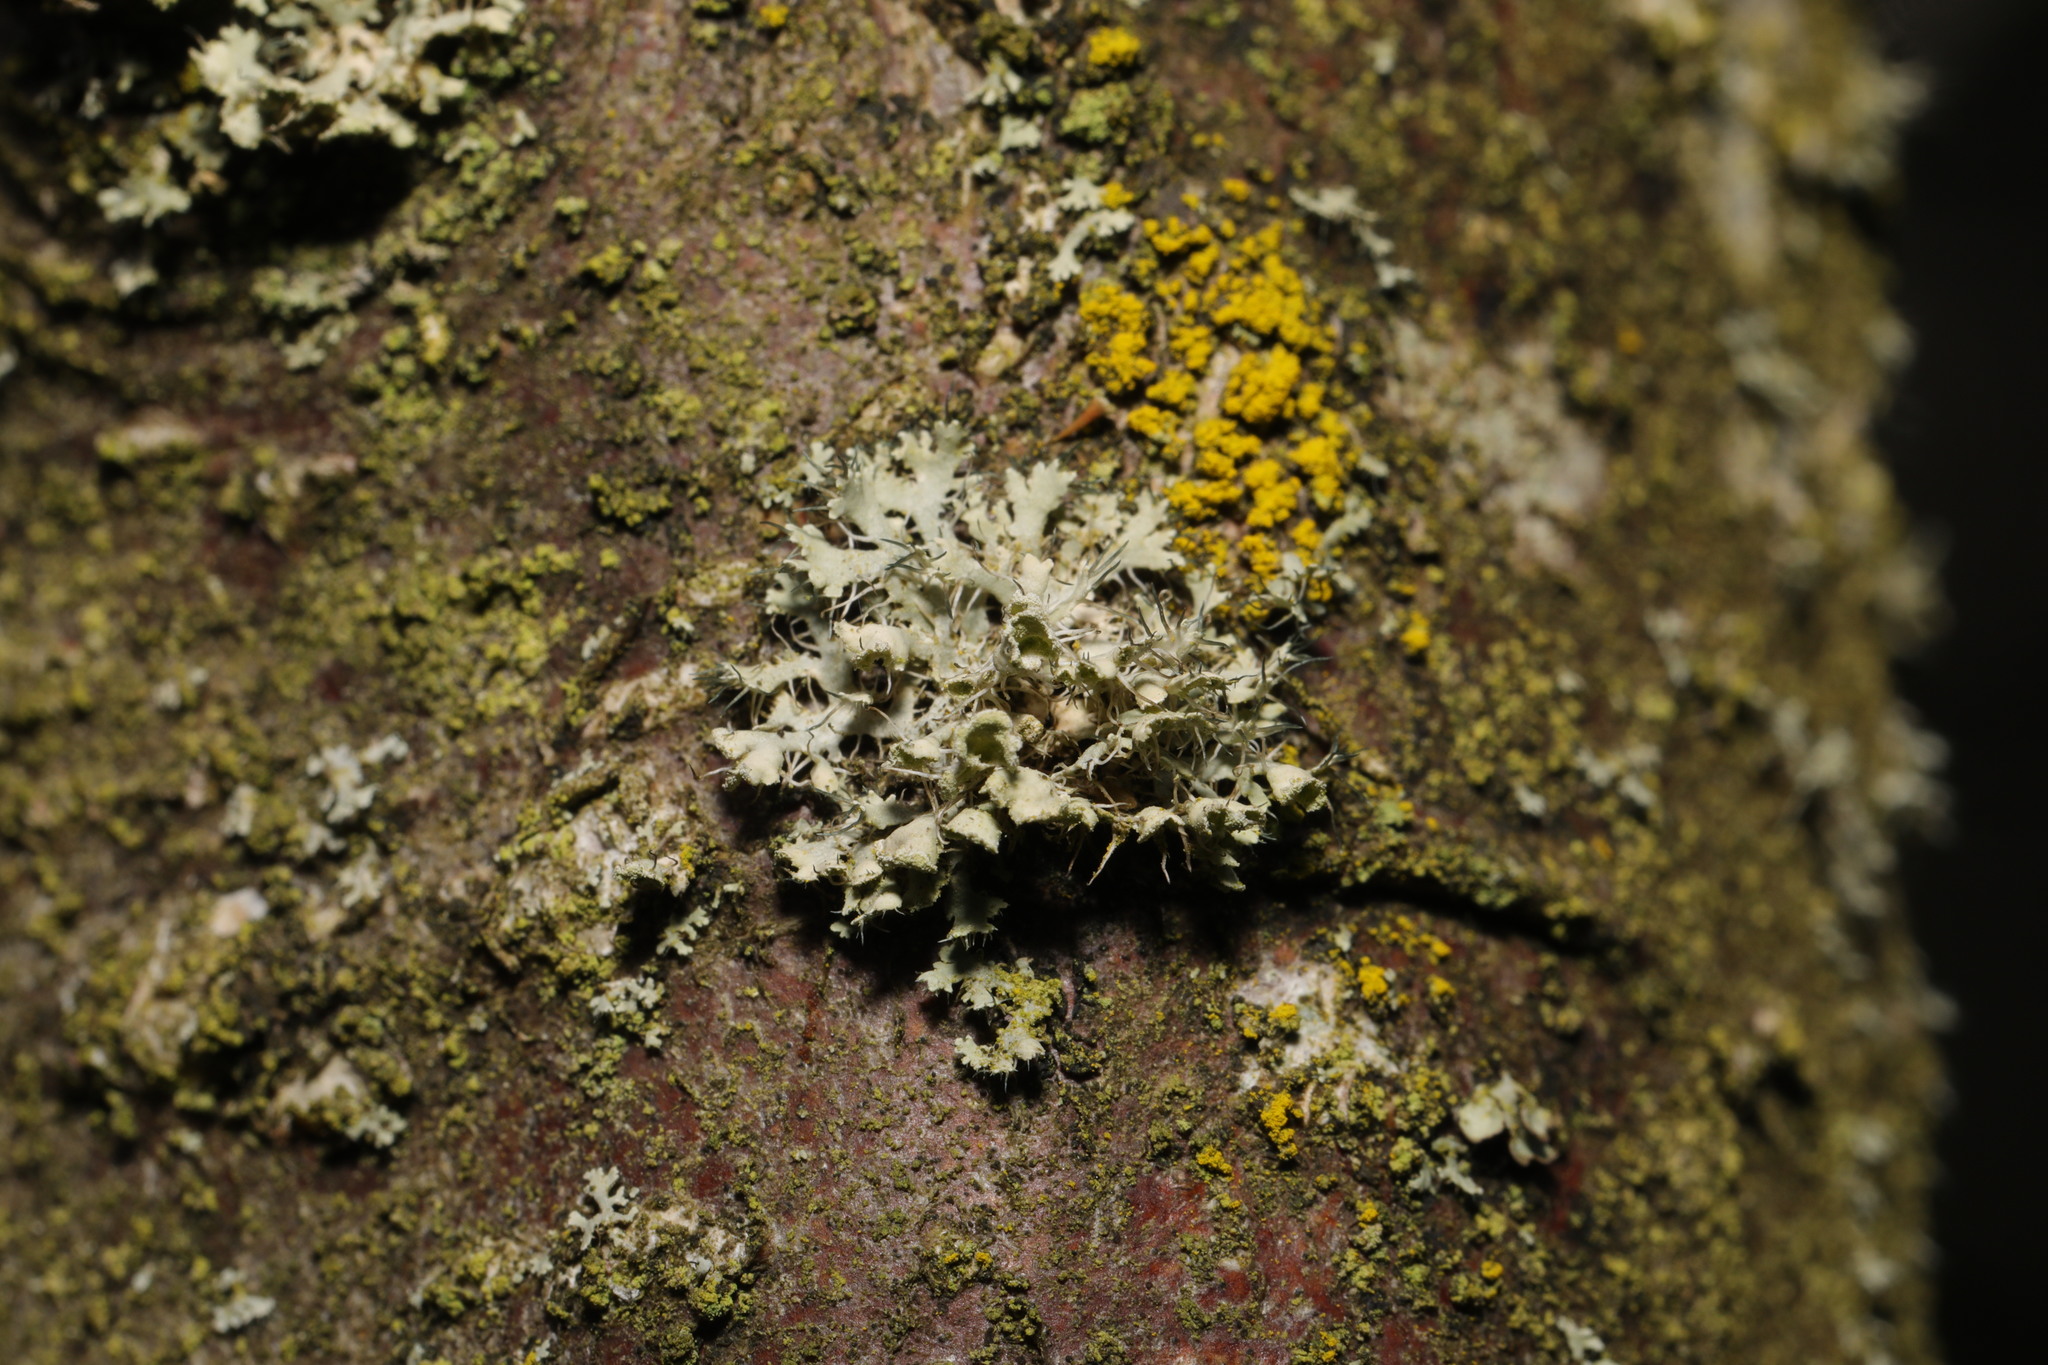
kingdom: Fungi
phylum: Ascomycota
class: Lecanoromycetes
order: Caliciales
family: Physciaceae
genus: Physcia
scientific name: Physcia adscendens
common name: Hooded rosette lichen
